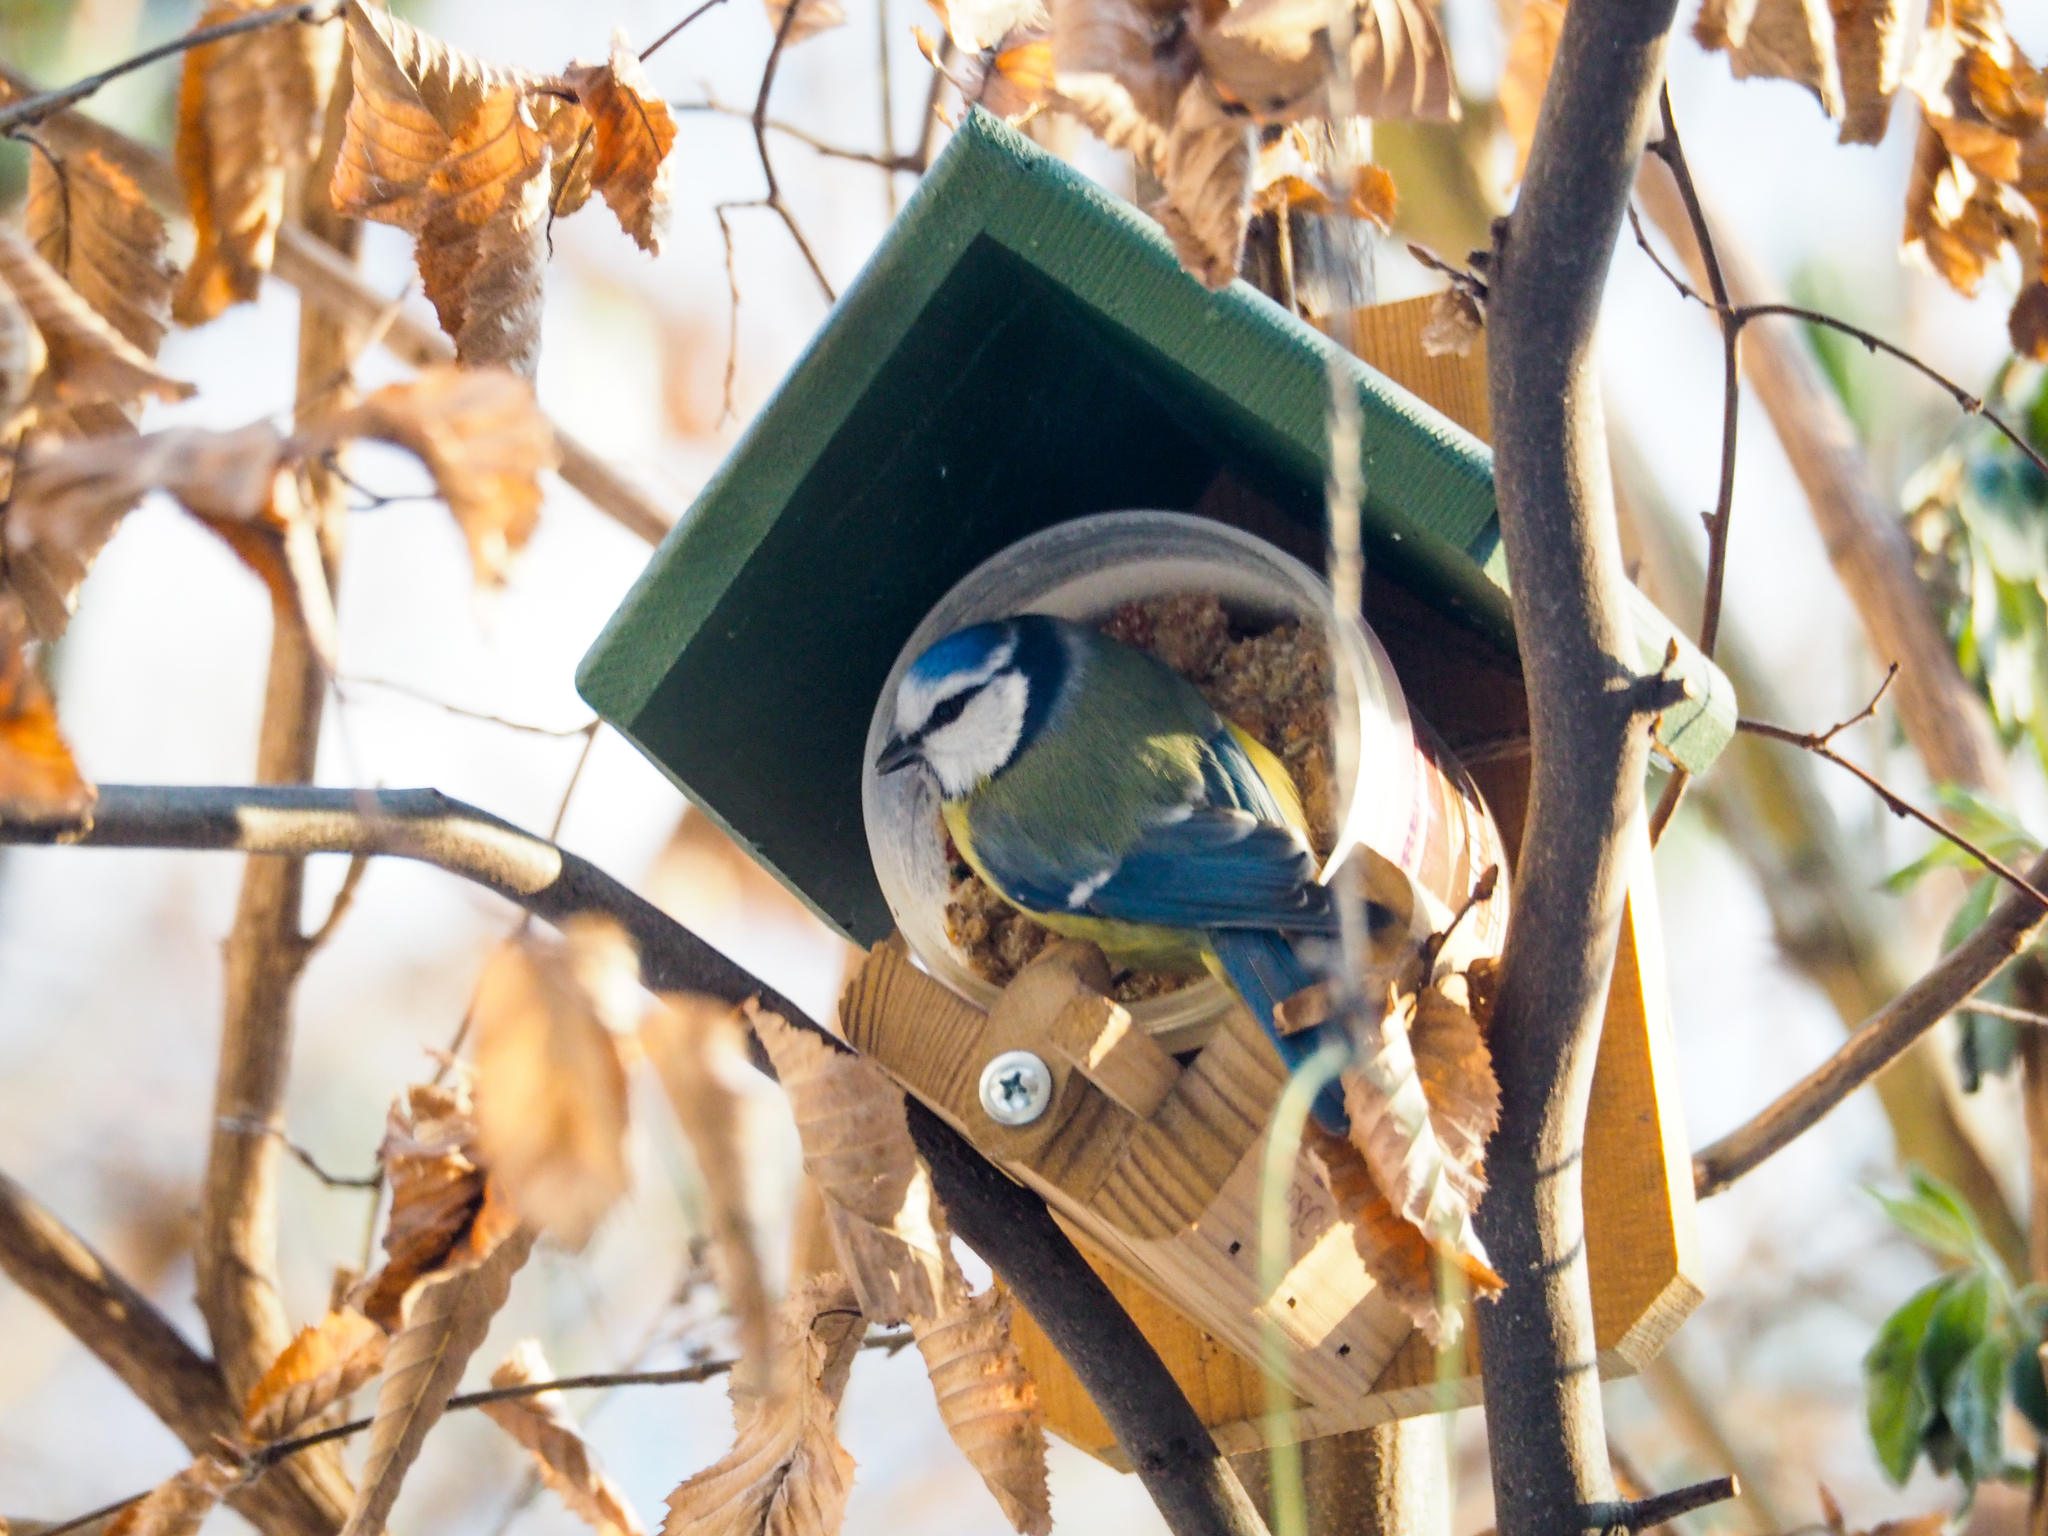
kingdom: Animalia
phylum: Chordata
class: Aves
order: Passeriformes
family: Paridae
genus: Cyanistes
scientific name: Cyanistes caeruleus
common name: Eurasian blue tit
